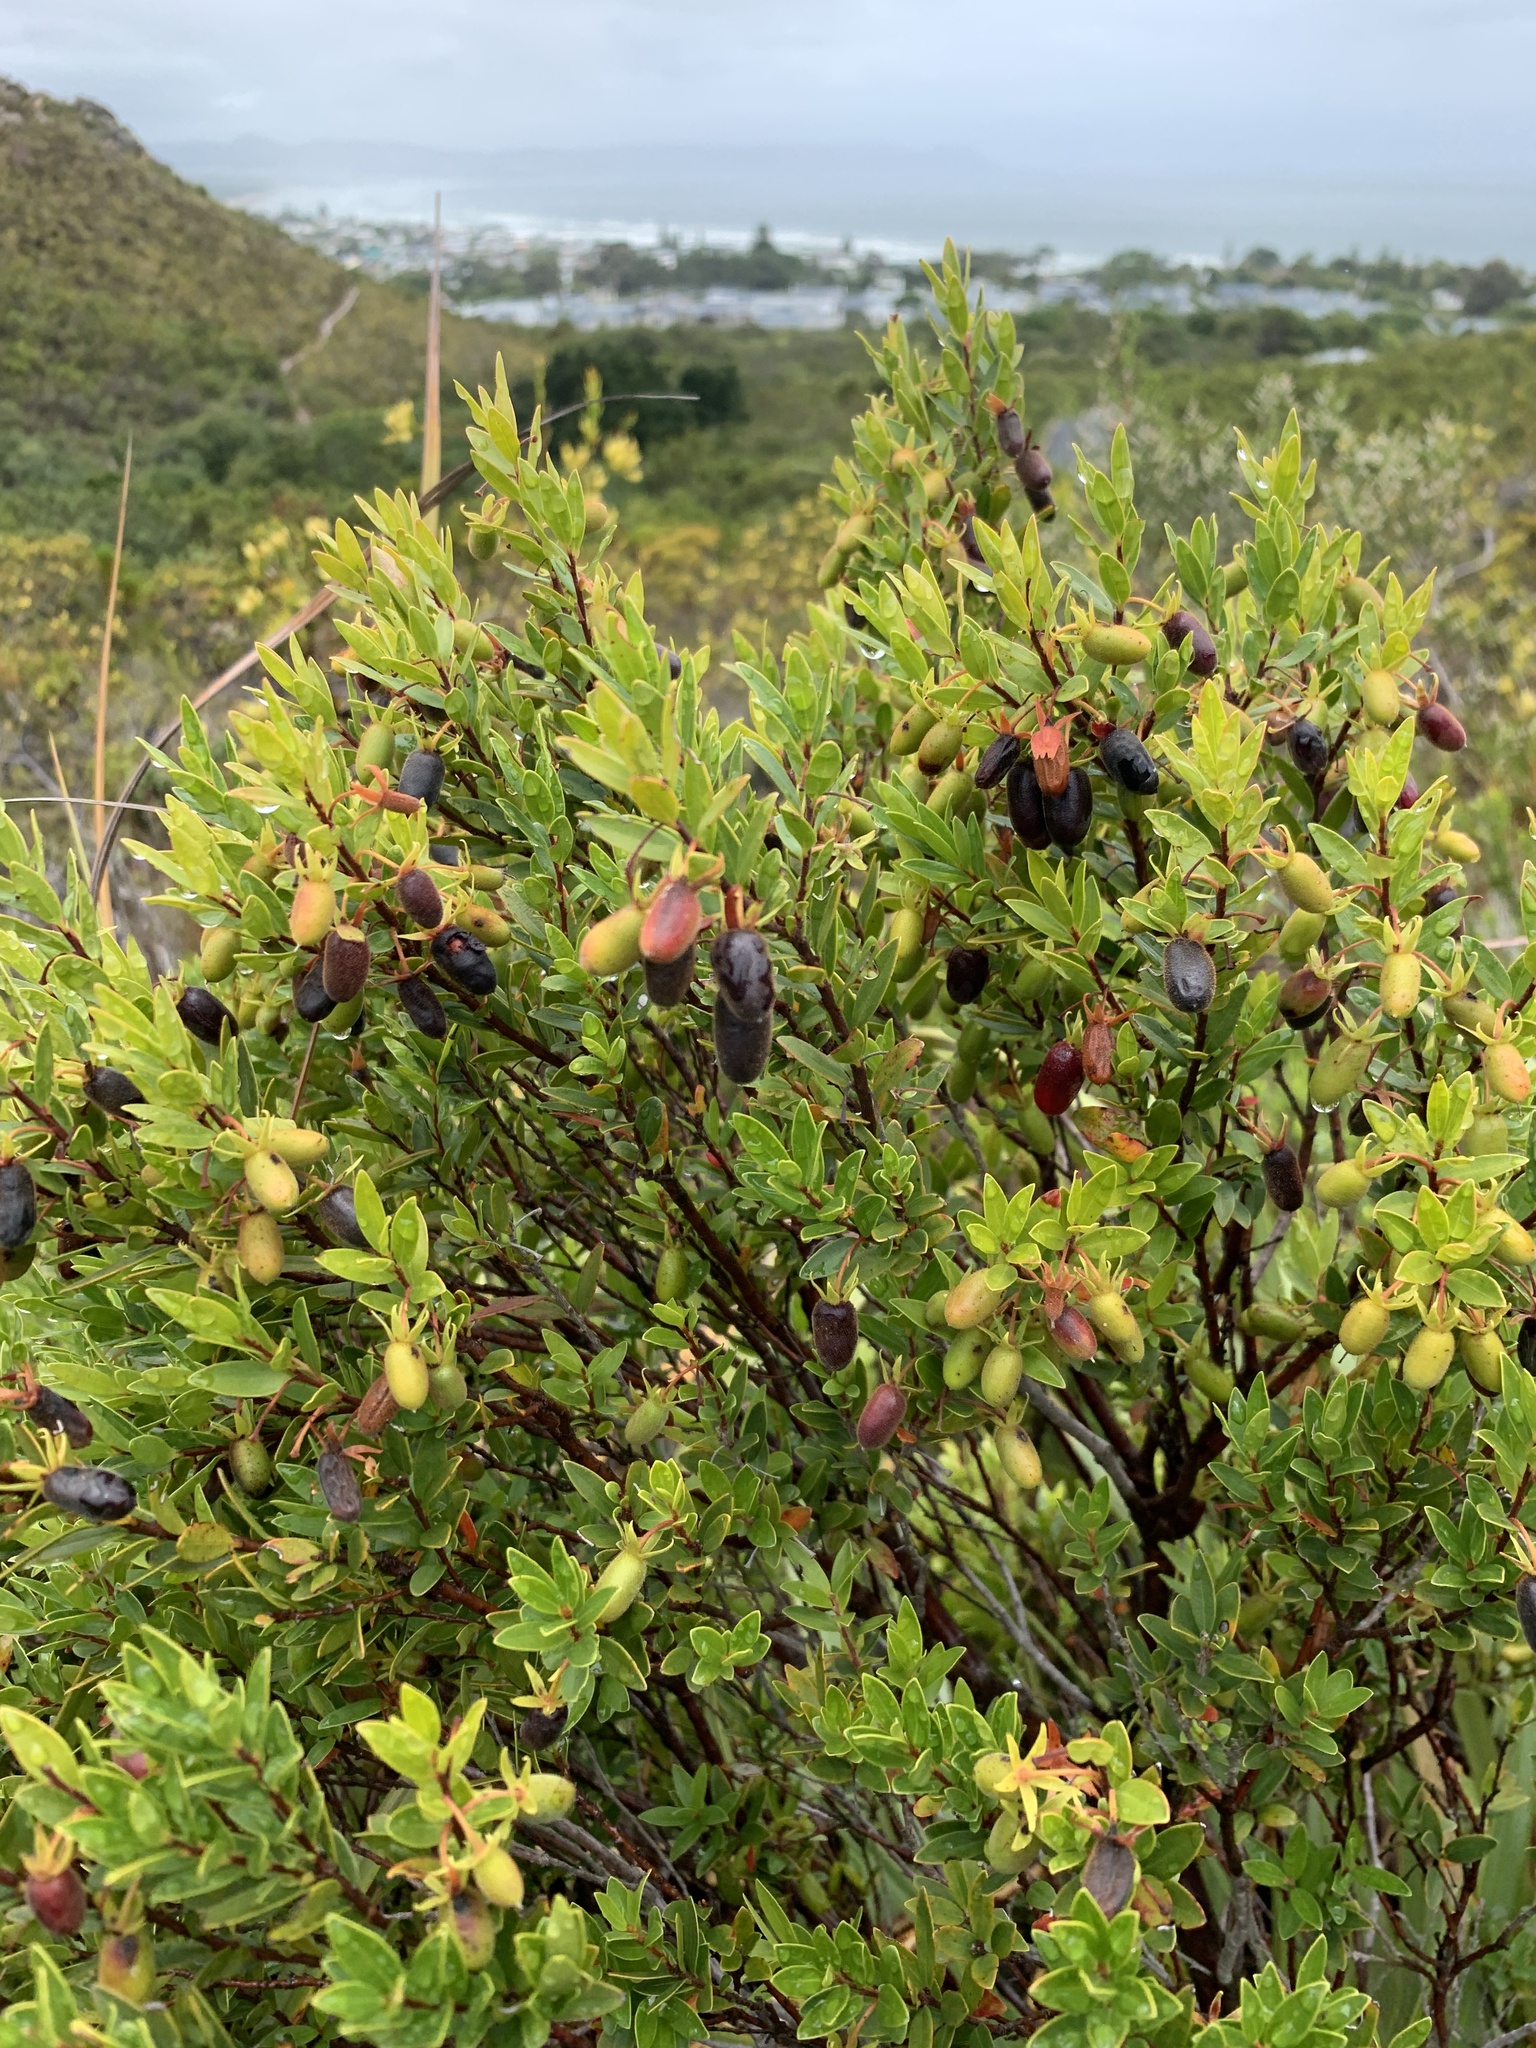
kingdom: Plantae
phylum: Tracheophyta
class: Magnoliopsida
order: Ericales
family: Ebenaceae
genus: Diospyros
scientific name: Diospyros glabra
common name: Fynbos star apple
